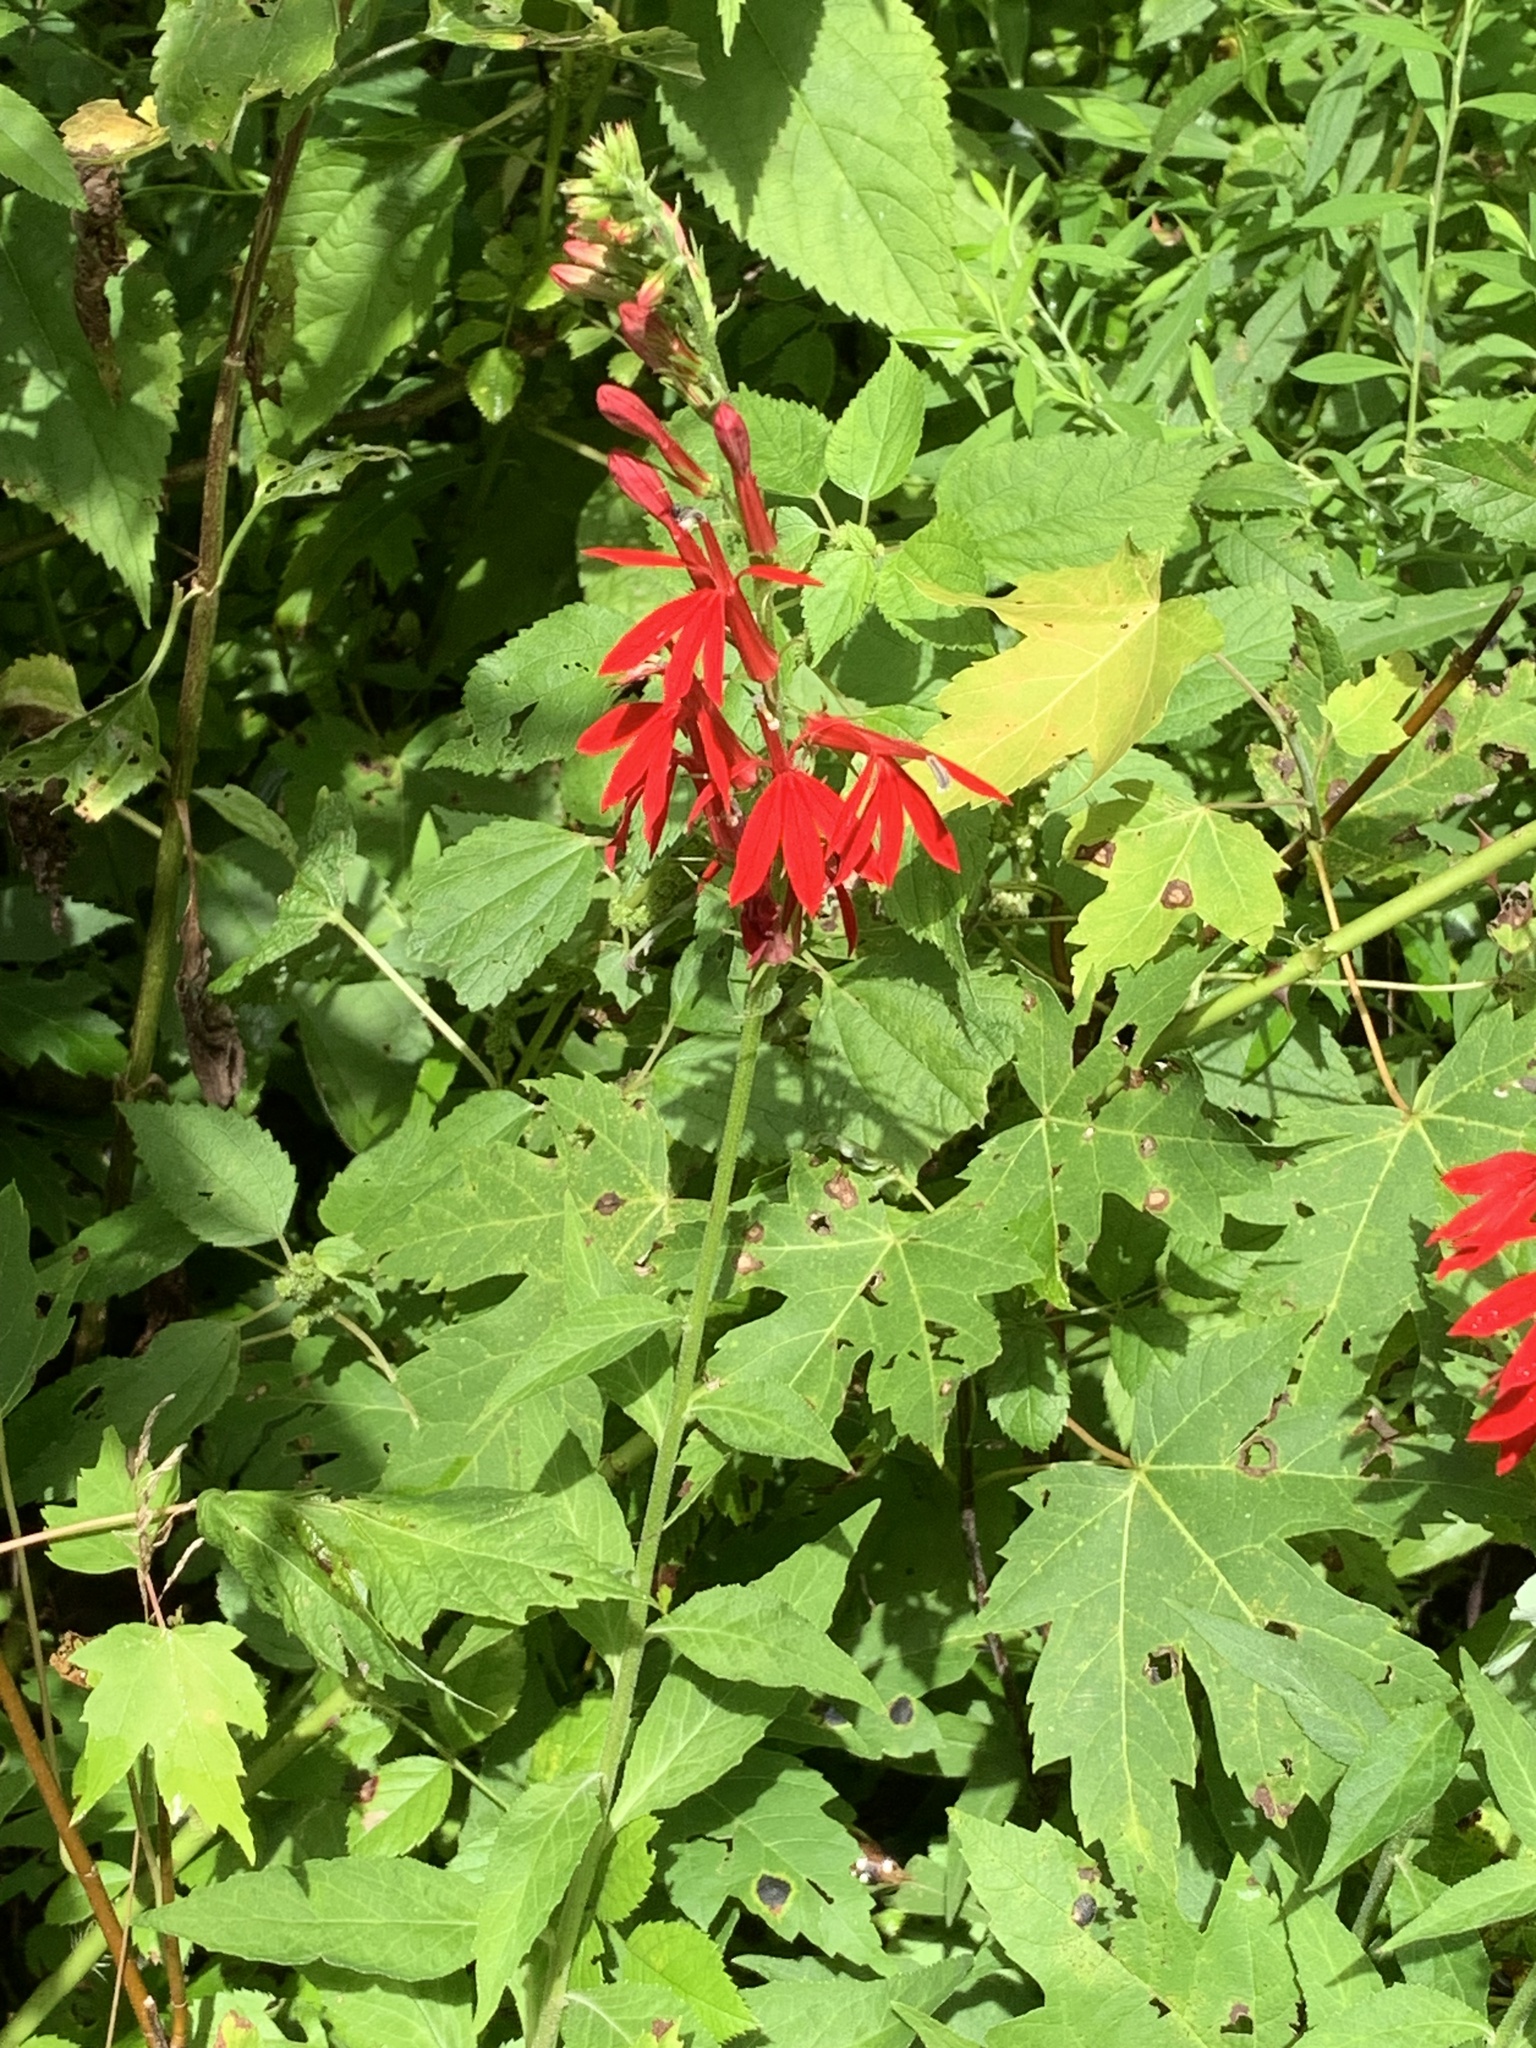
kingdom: Plantae
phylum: Tracheophyta
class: Magnoliopsida
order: Asterales
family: Campanulaceae
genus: Lobelia
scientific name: Lobelia cardinalis
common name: Cardinal flower
